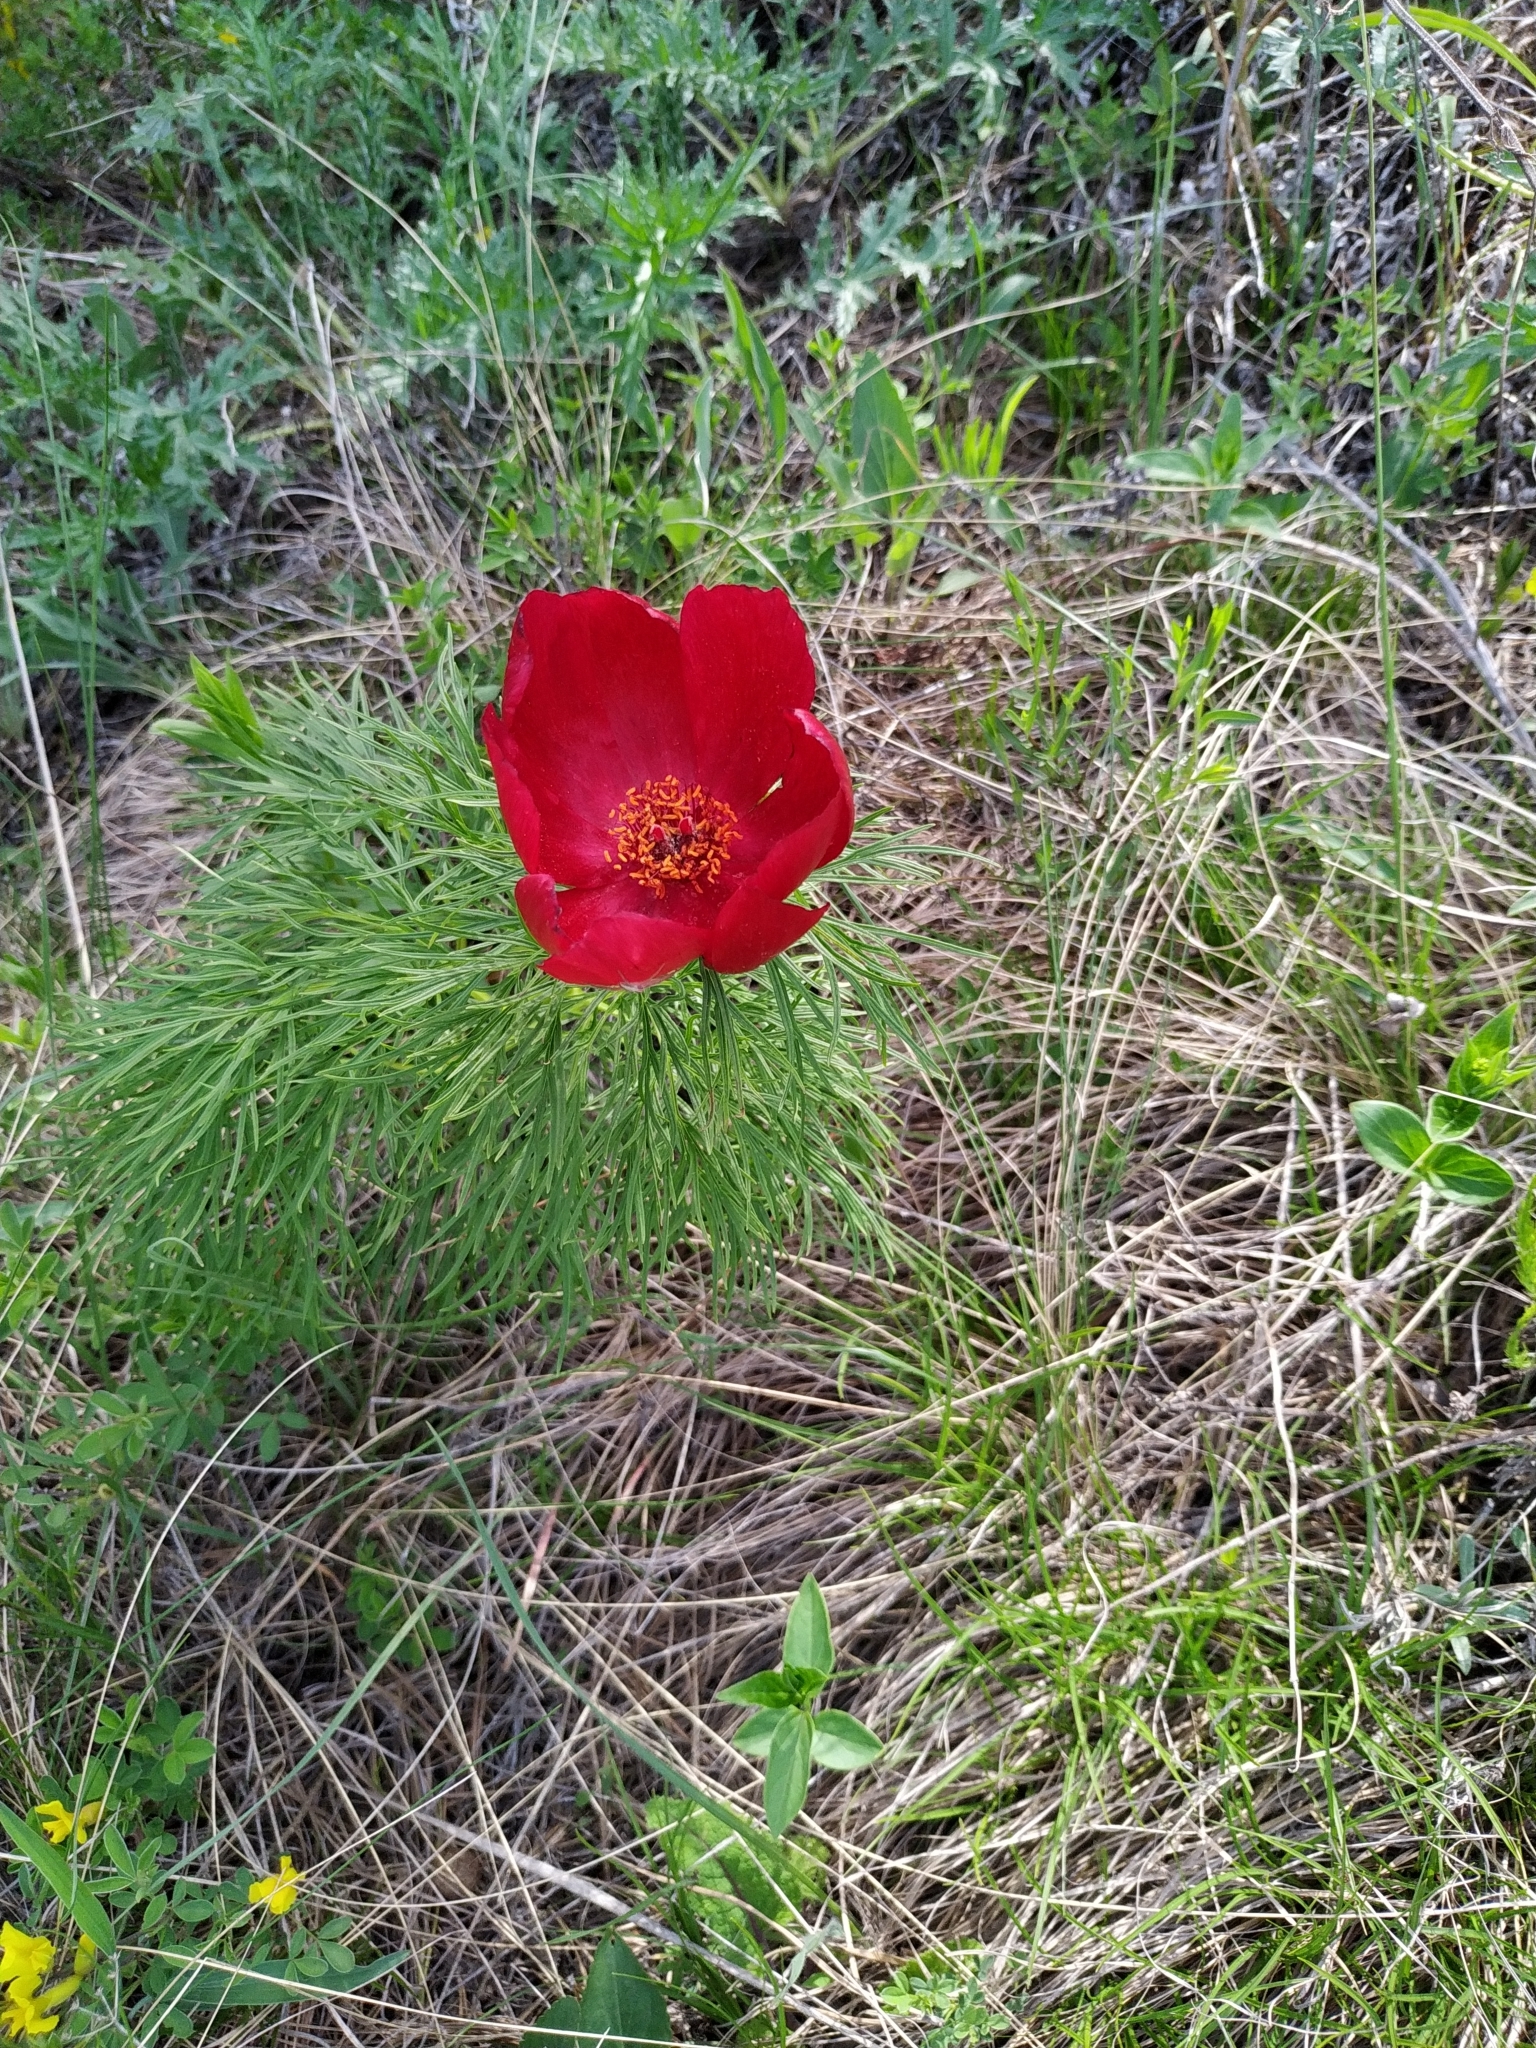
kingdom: Plantae
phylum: Tracheophyta
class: Magnoliopsida
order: Saxifragales
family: Paeoniaceae
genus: Paeonia
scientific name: Paeonia tenuifolia
